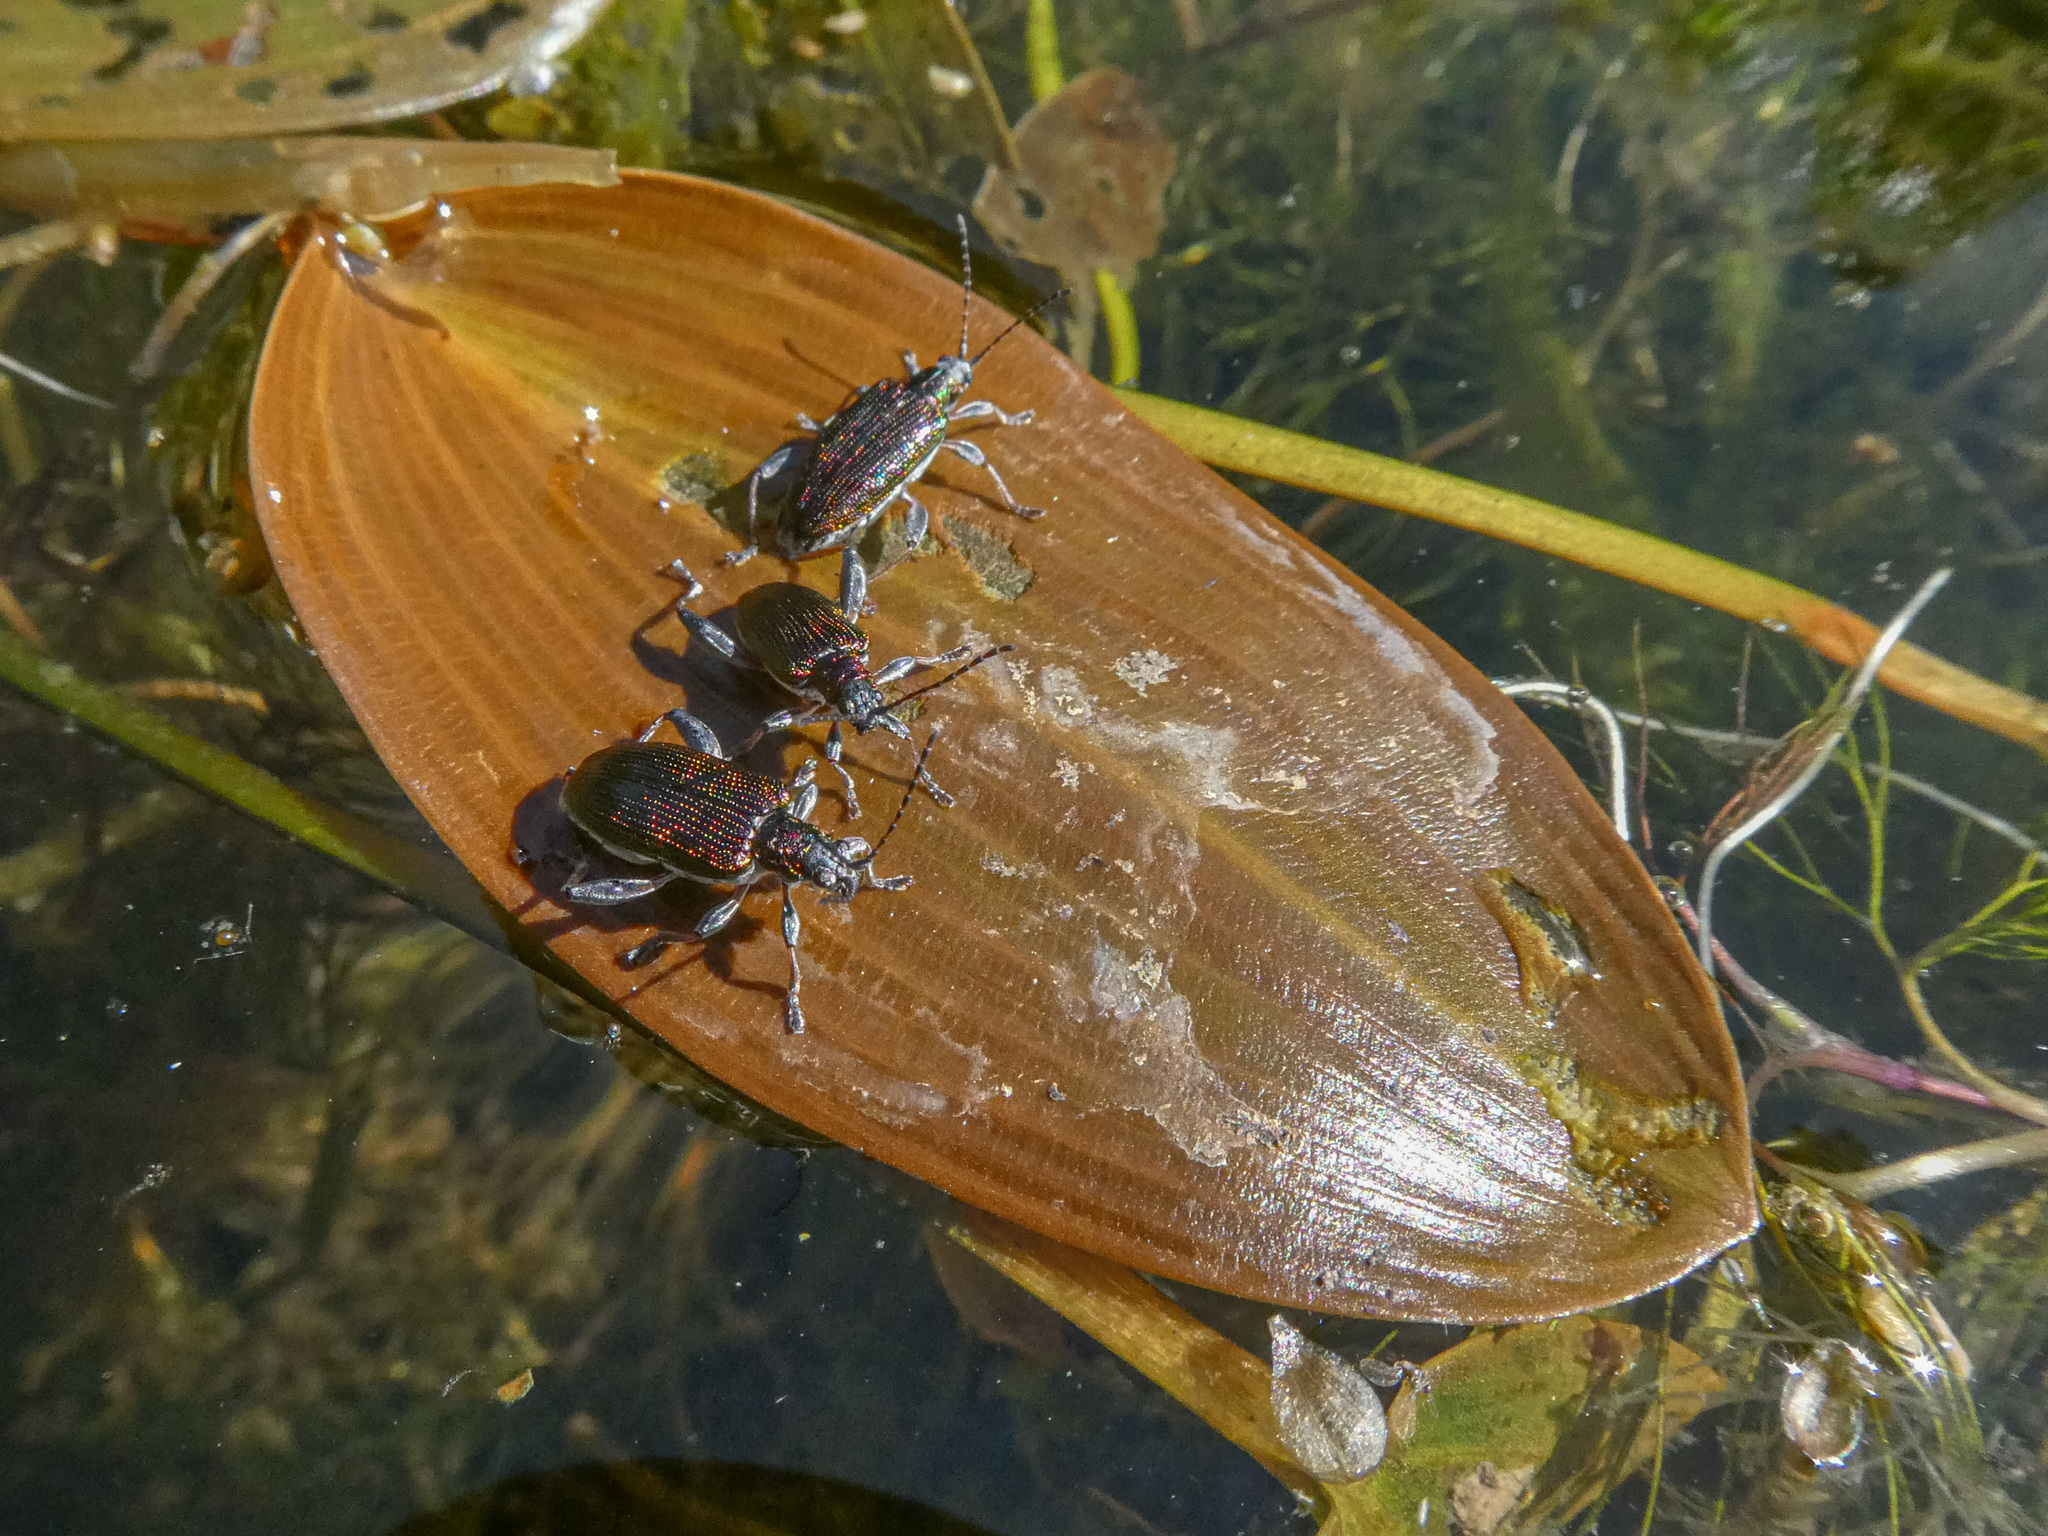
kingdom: Animalia
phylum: Arthropoda
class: Insecta
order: Coleoptera
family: Chrysomelidae
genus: Donacia
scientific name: Donacia versicolorea
